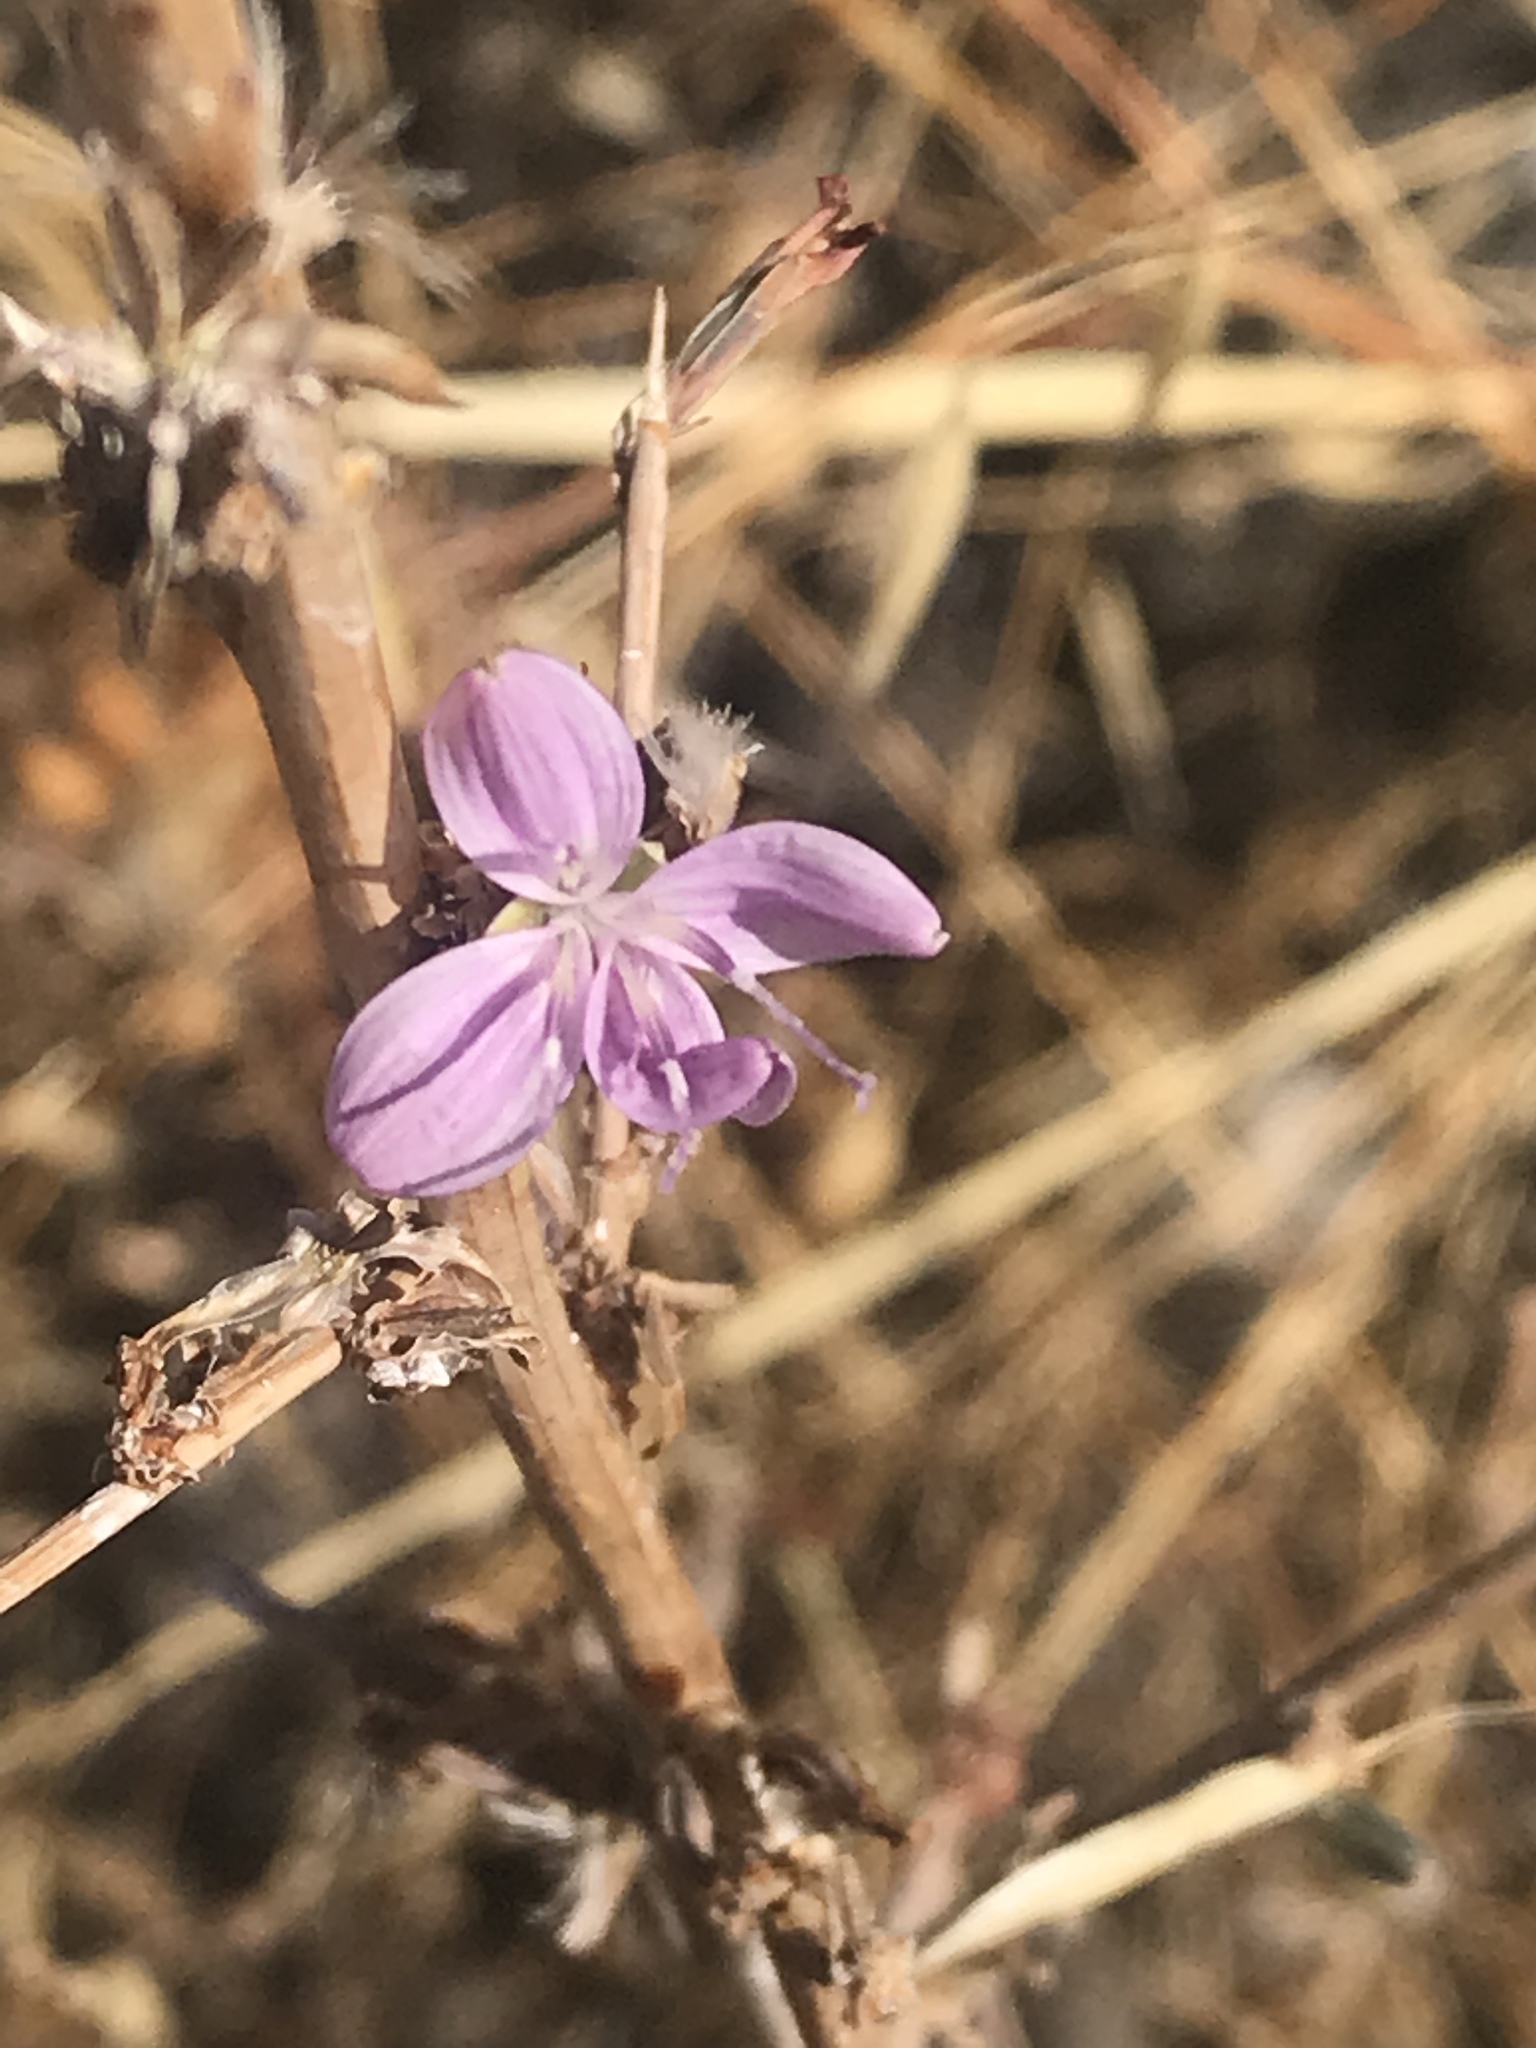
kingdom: Plantae
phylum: Tracheophyta
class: Magnoliopsida
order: Asterales
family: Asteraceae
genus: Stephanomeria
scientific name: Stephanomeria virgata
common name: Virgate wirelettuce
